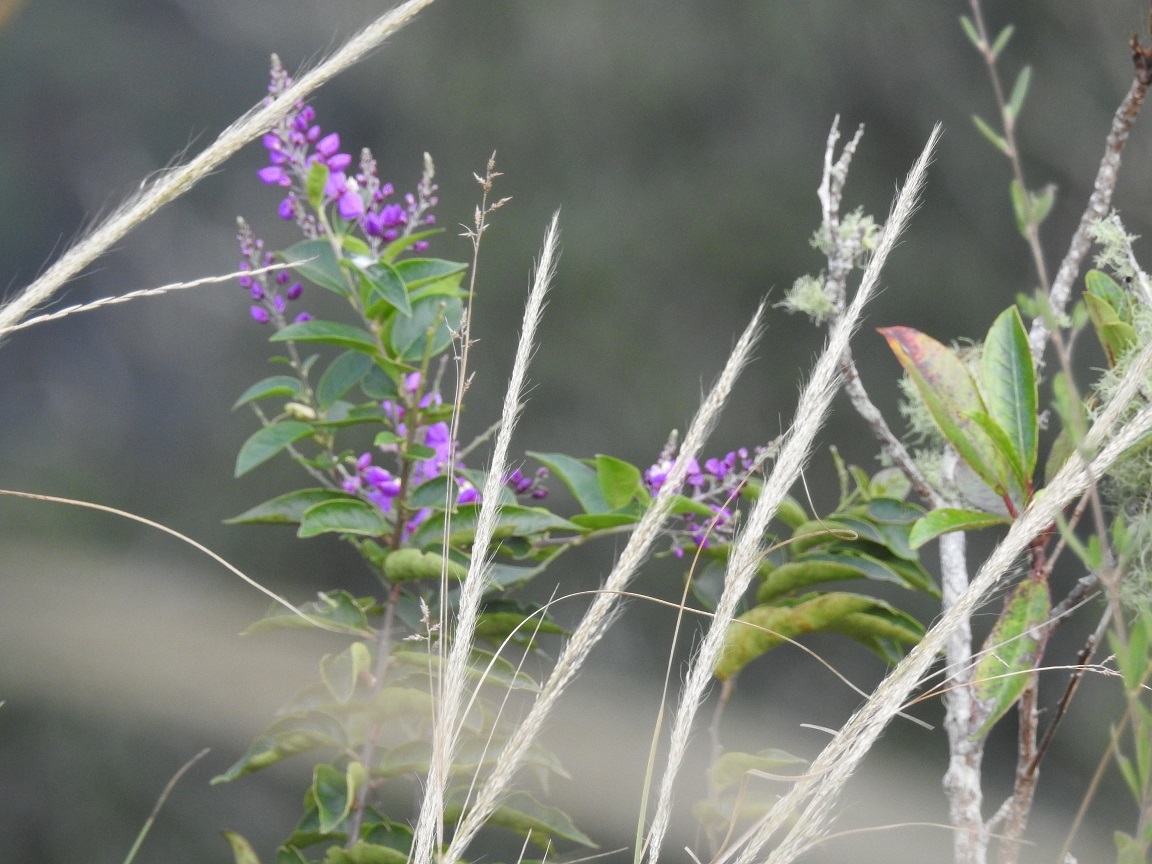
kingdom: Plantae
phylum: Tracheophyta
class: Magnoliopsida
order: Fabales
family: Polygalaceae
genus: Asemeia
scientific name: Asemeia floribunda
